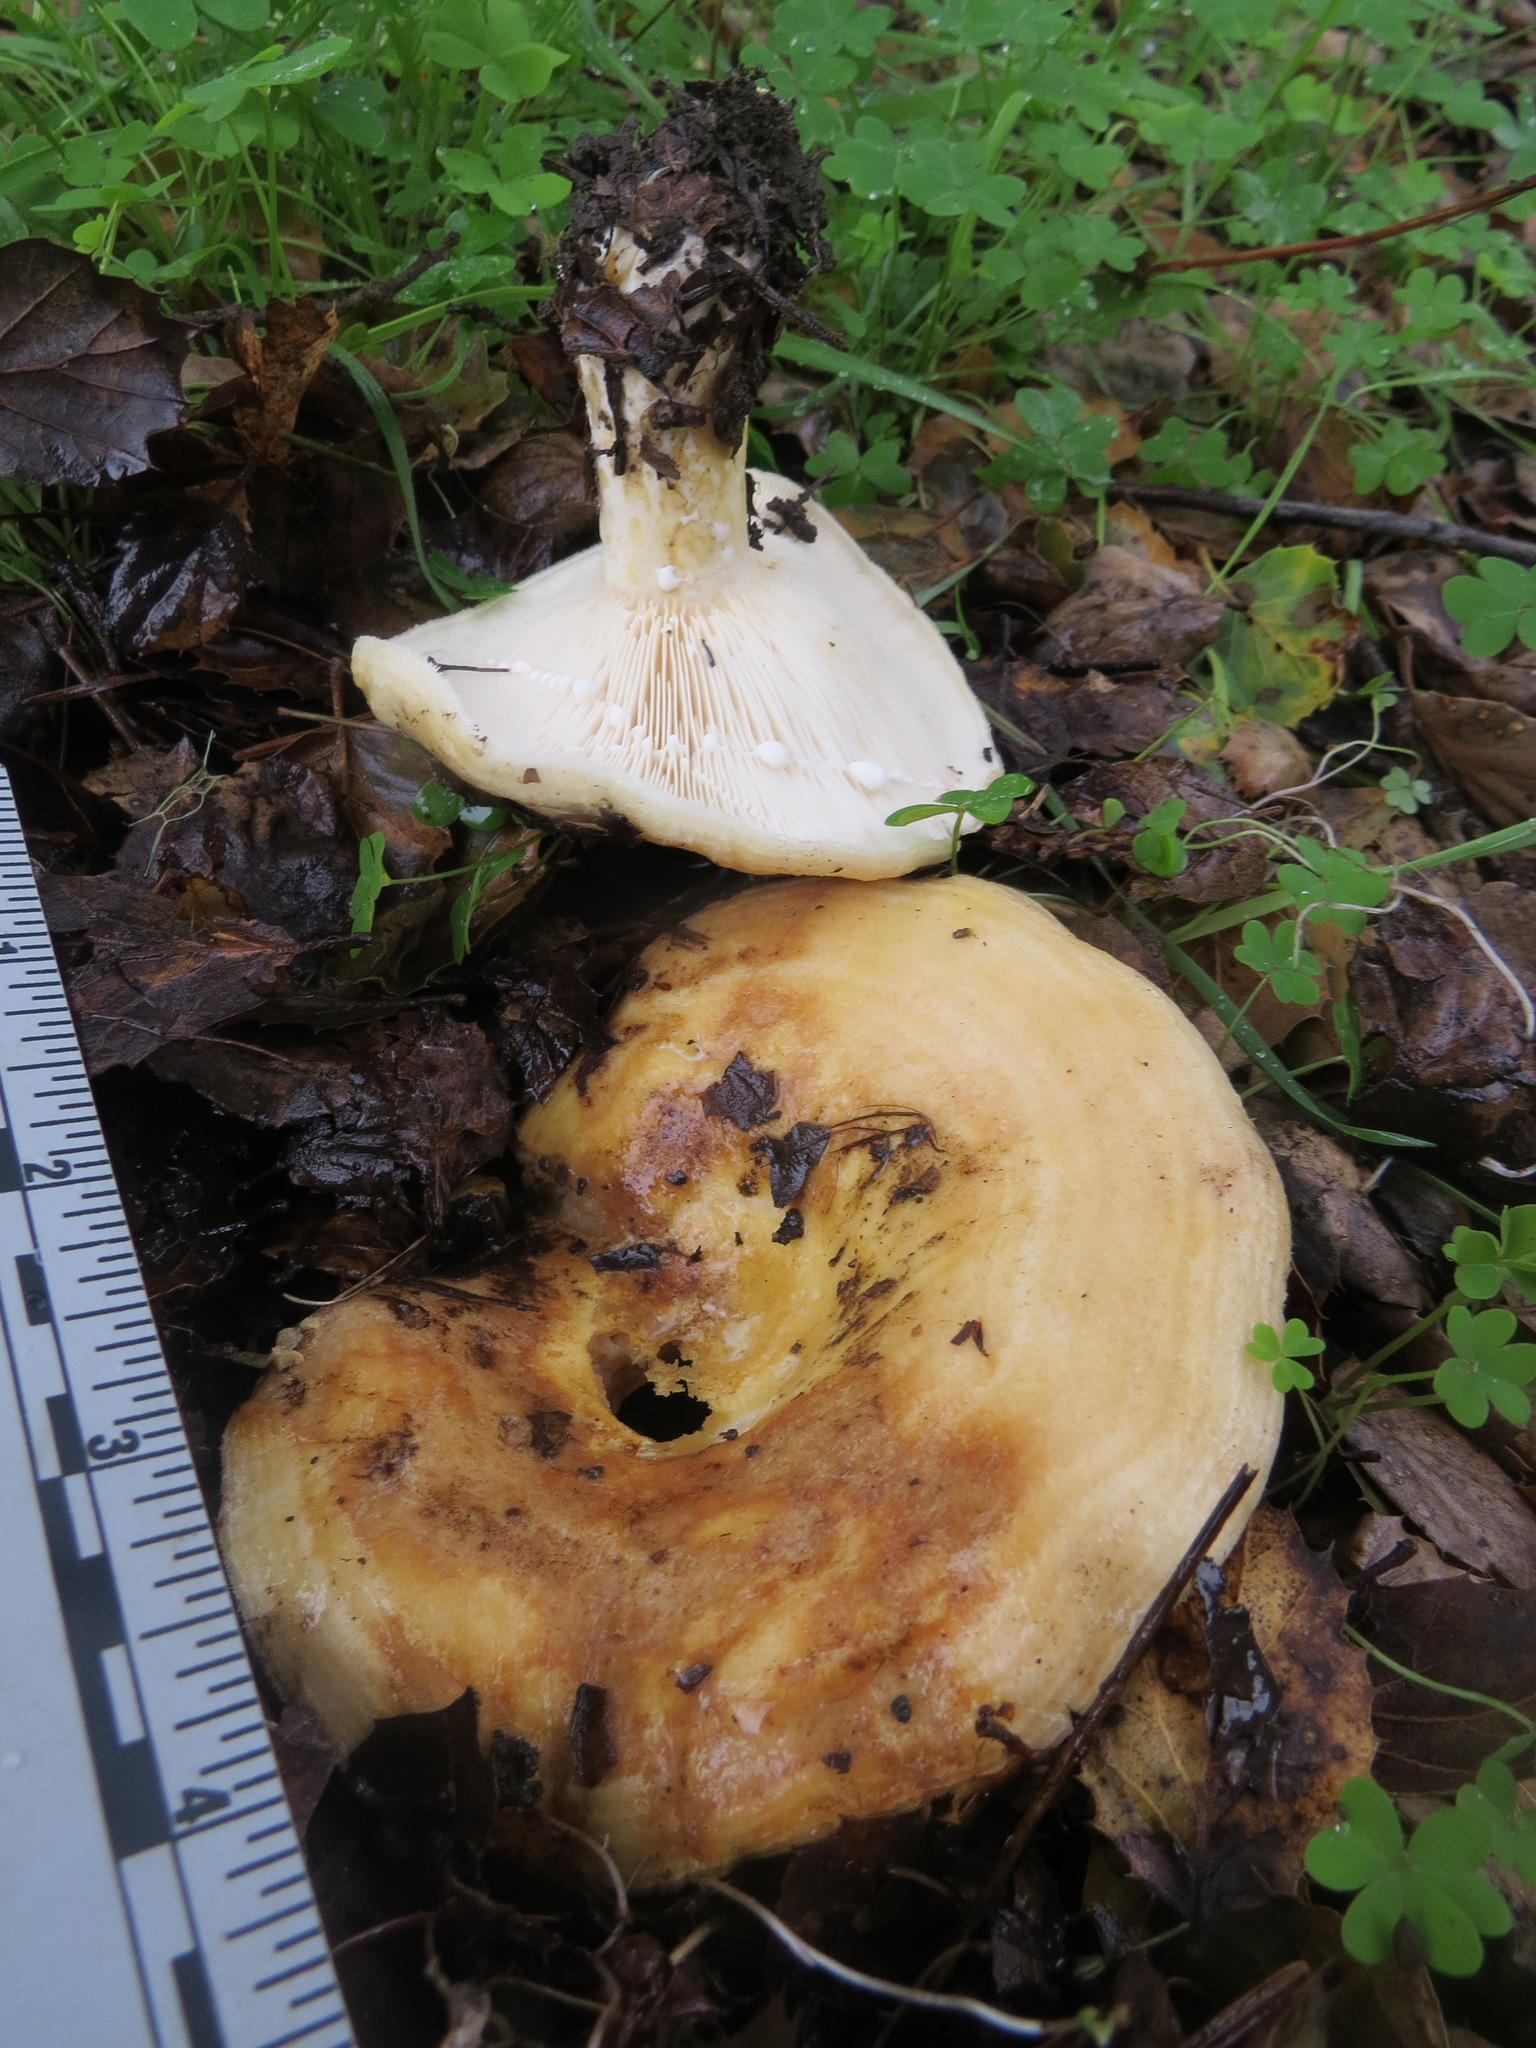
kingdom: Fungi
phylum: Basidiomycota
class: Agaricomycetes
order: Russulales
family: Russulaceae
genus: Lactarius
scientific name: Lactarius alnicola
